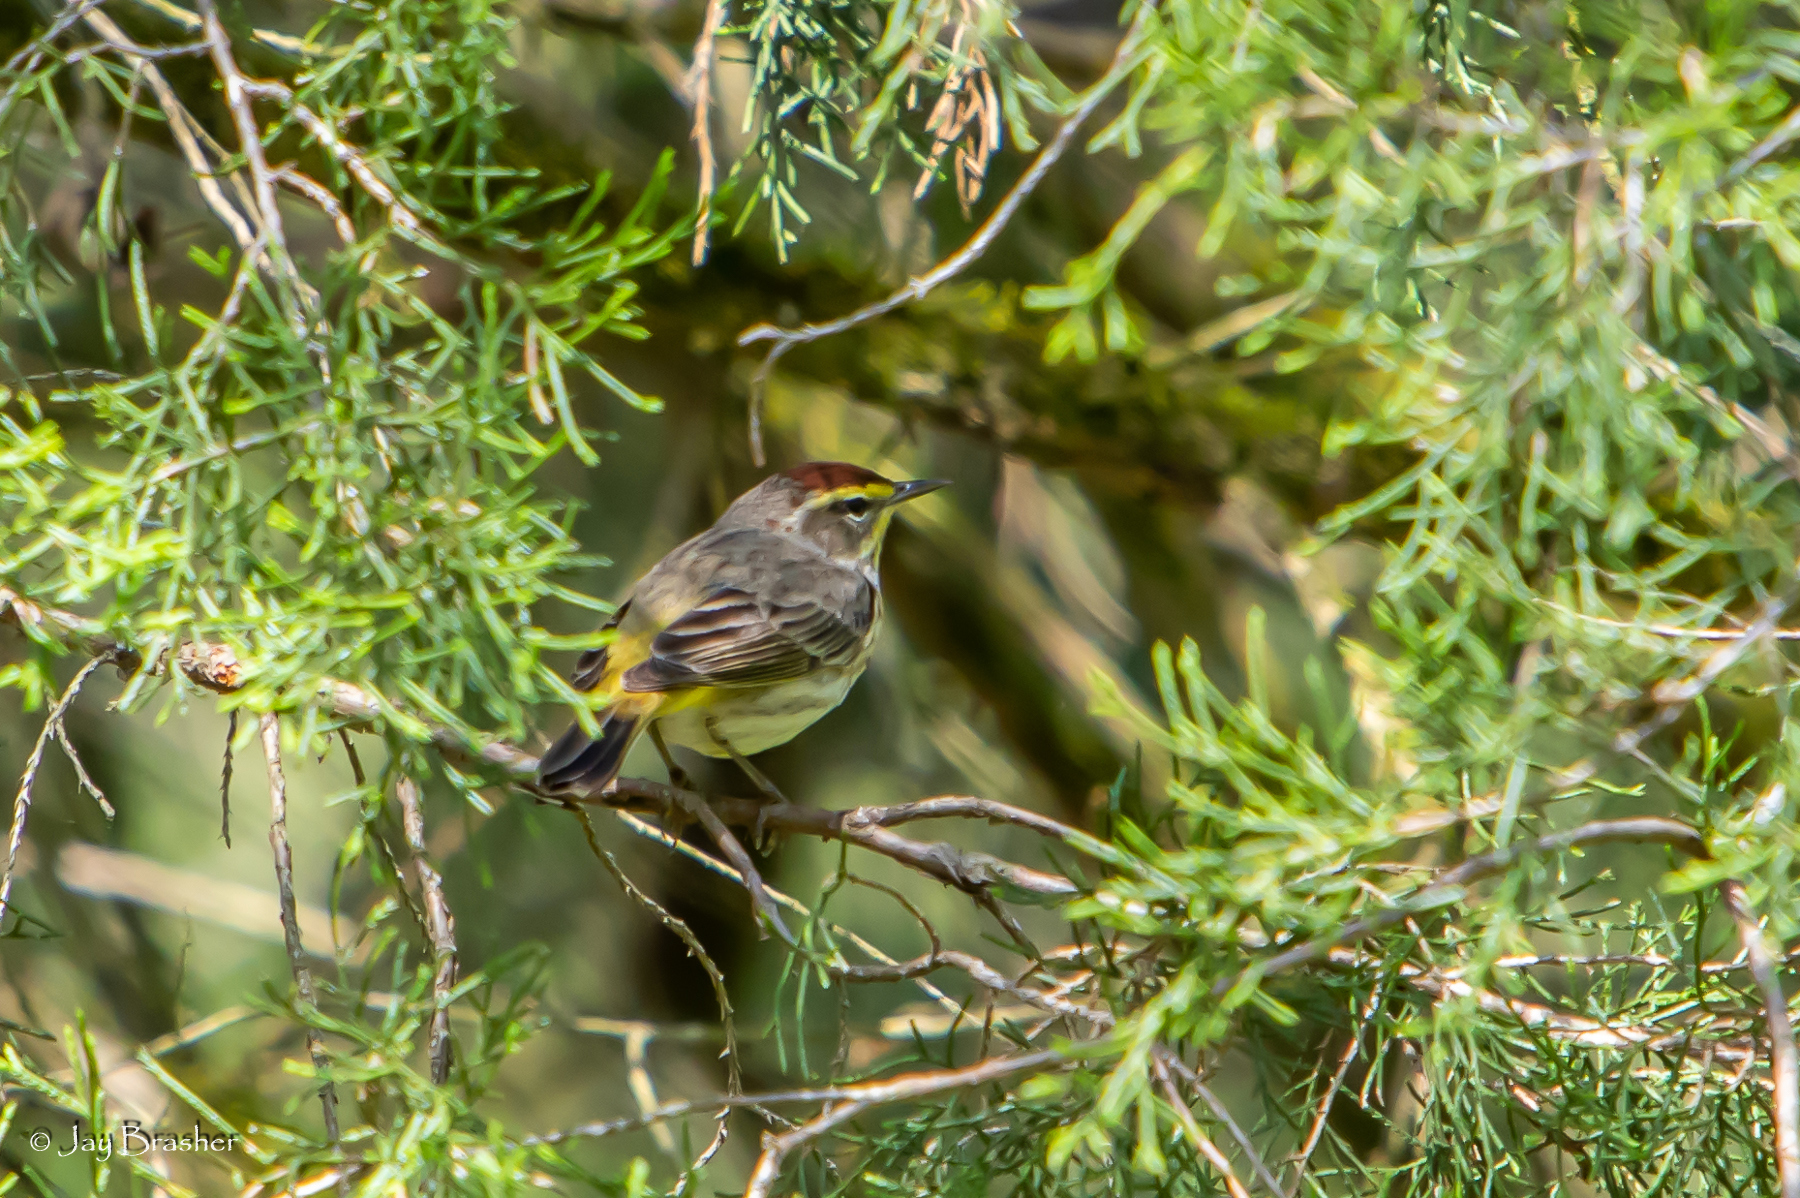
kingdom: Animalia
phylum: Chordata
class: Aves
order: Passeriformes
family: Parulidae
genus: Setophaga
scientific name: Setophaga palmarum
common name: Palm warbler
